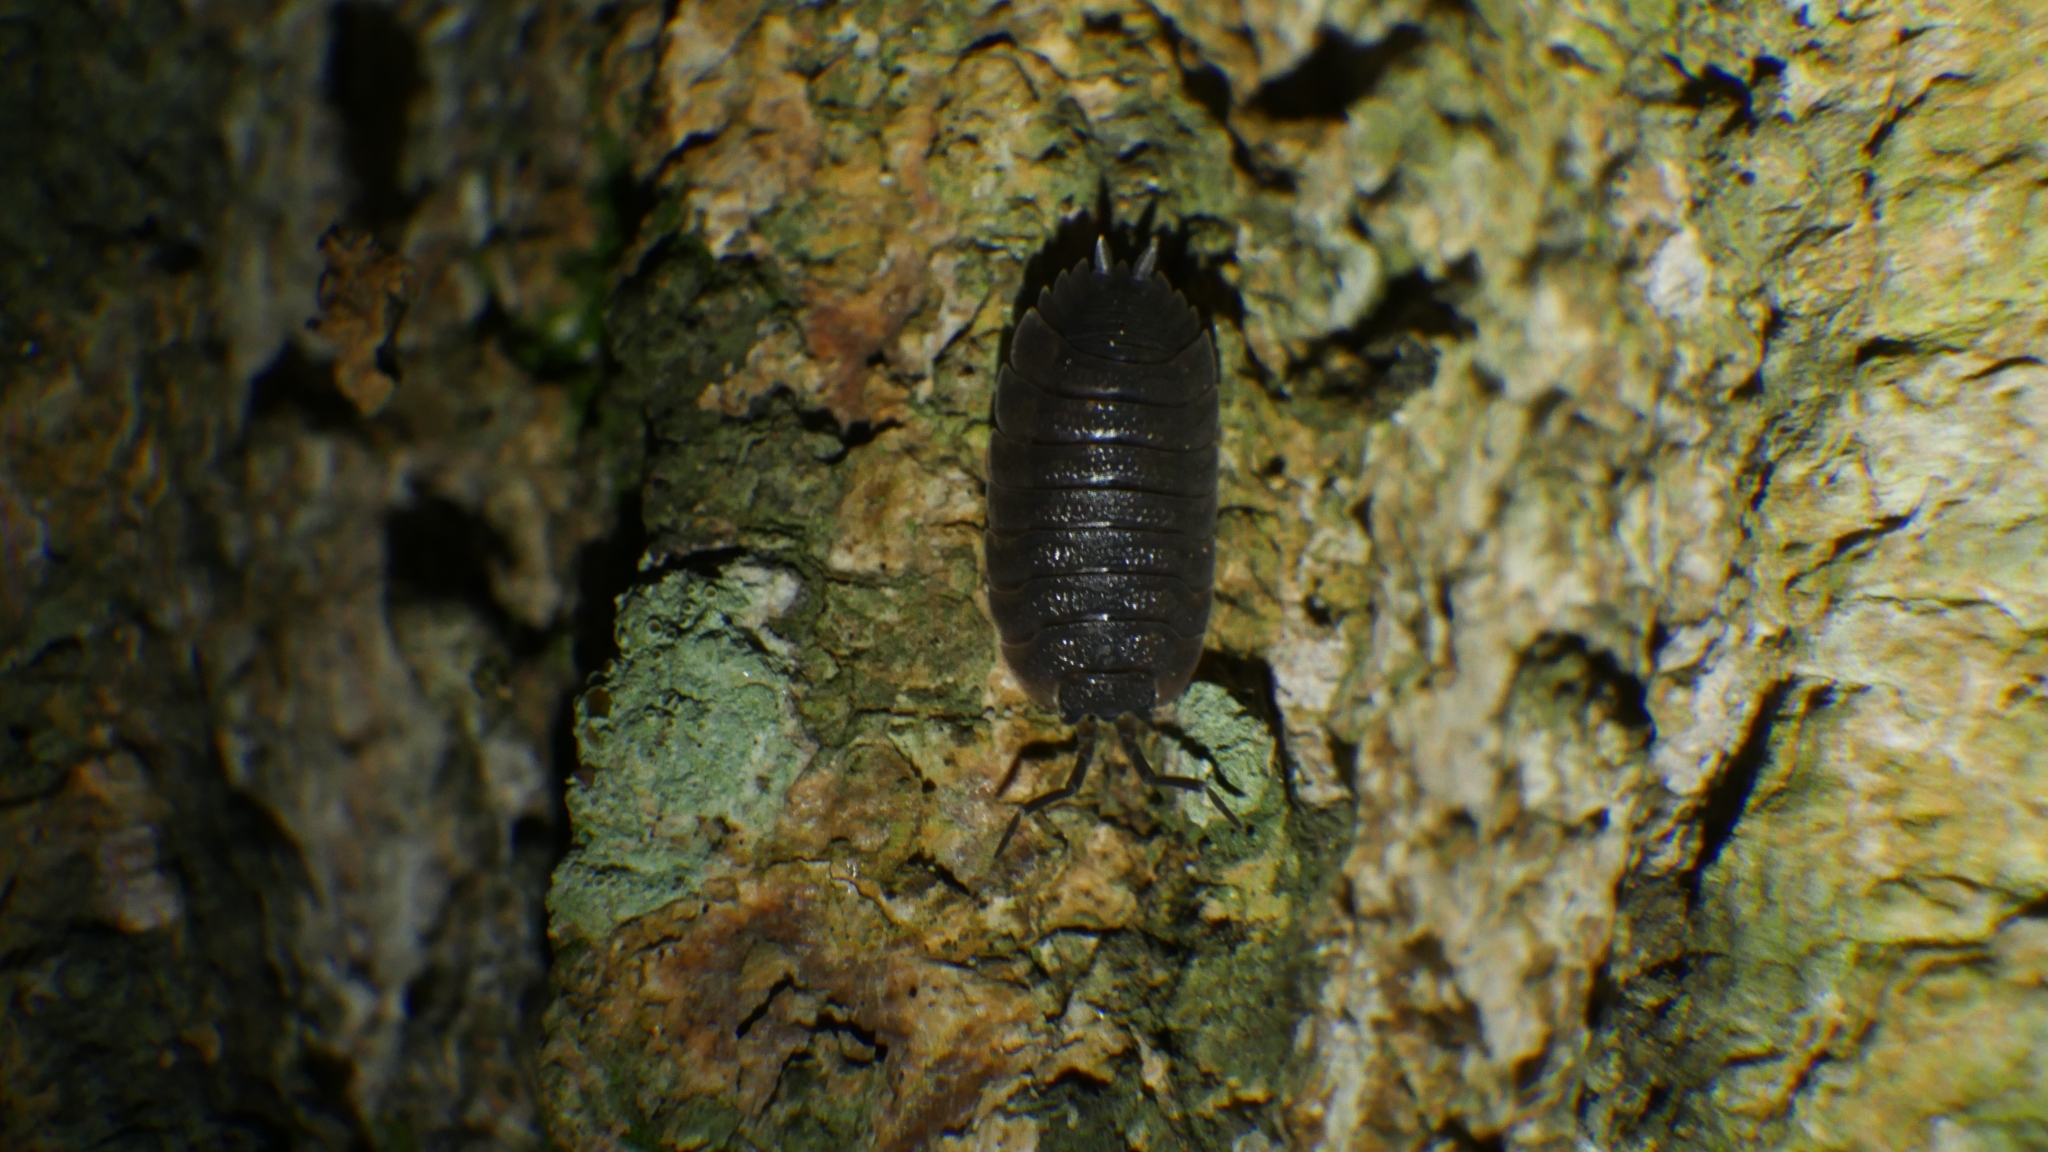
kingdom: Animalia
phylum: Arthropoda
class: Malacostraca
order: Isopoda
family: Porcellionidae
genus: Porcellio
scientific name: Porcellio scaber
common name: Common rough woodlouse
